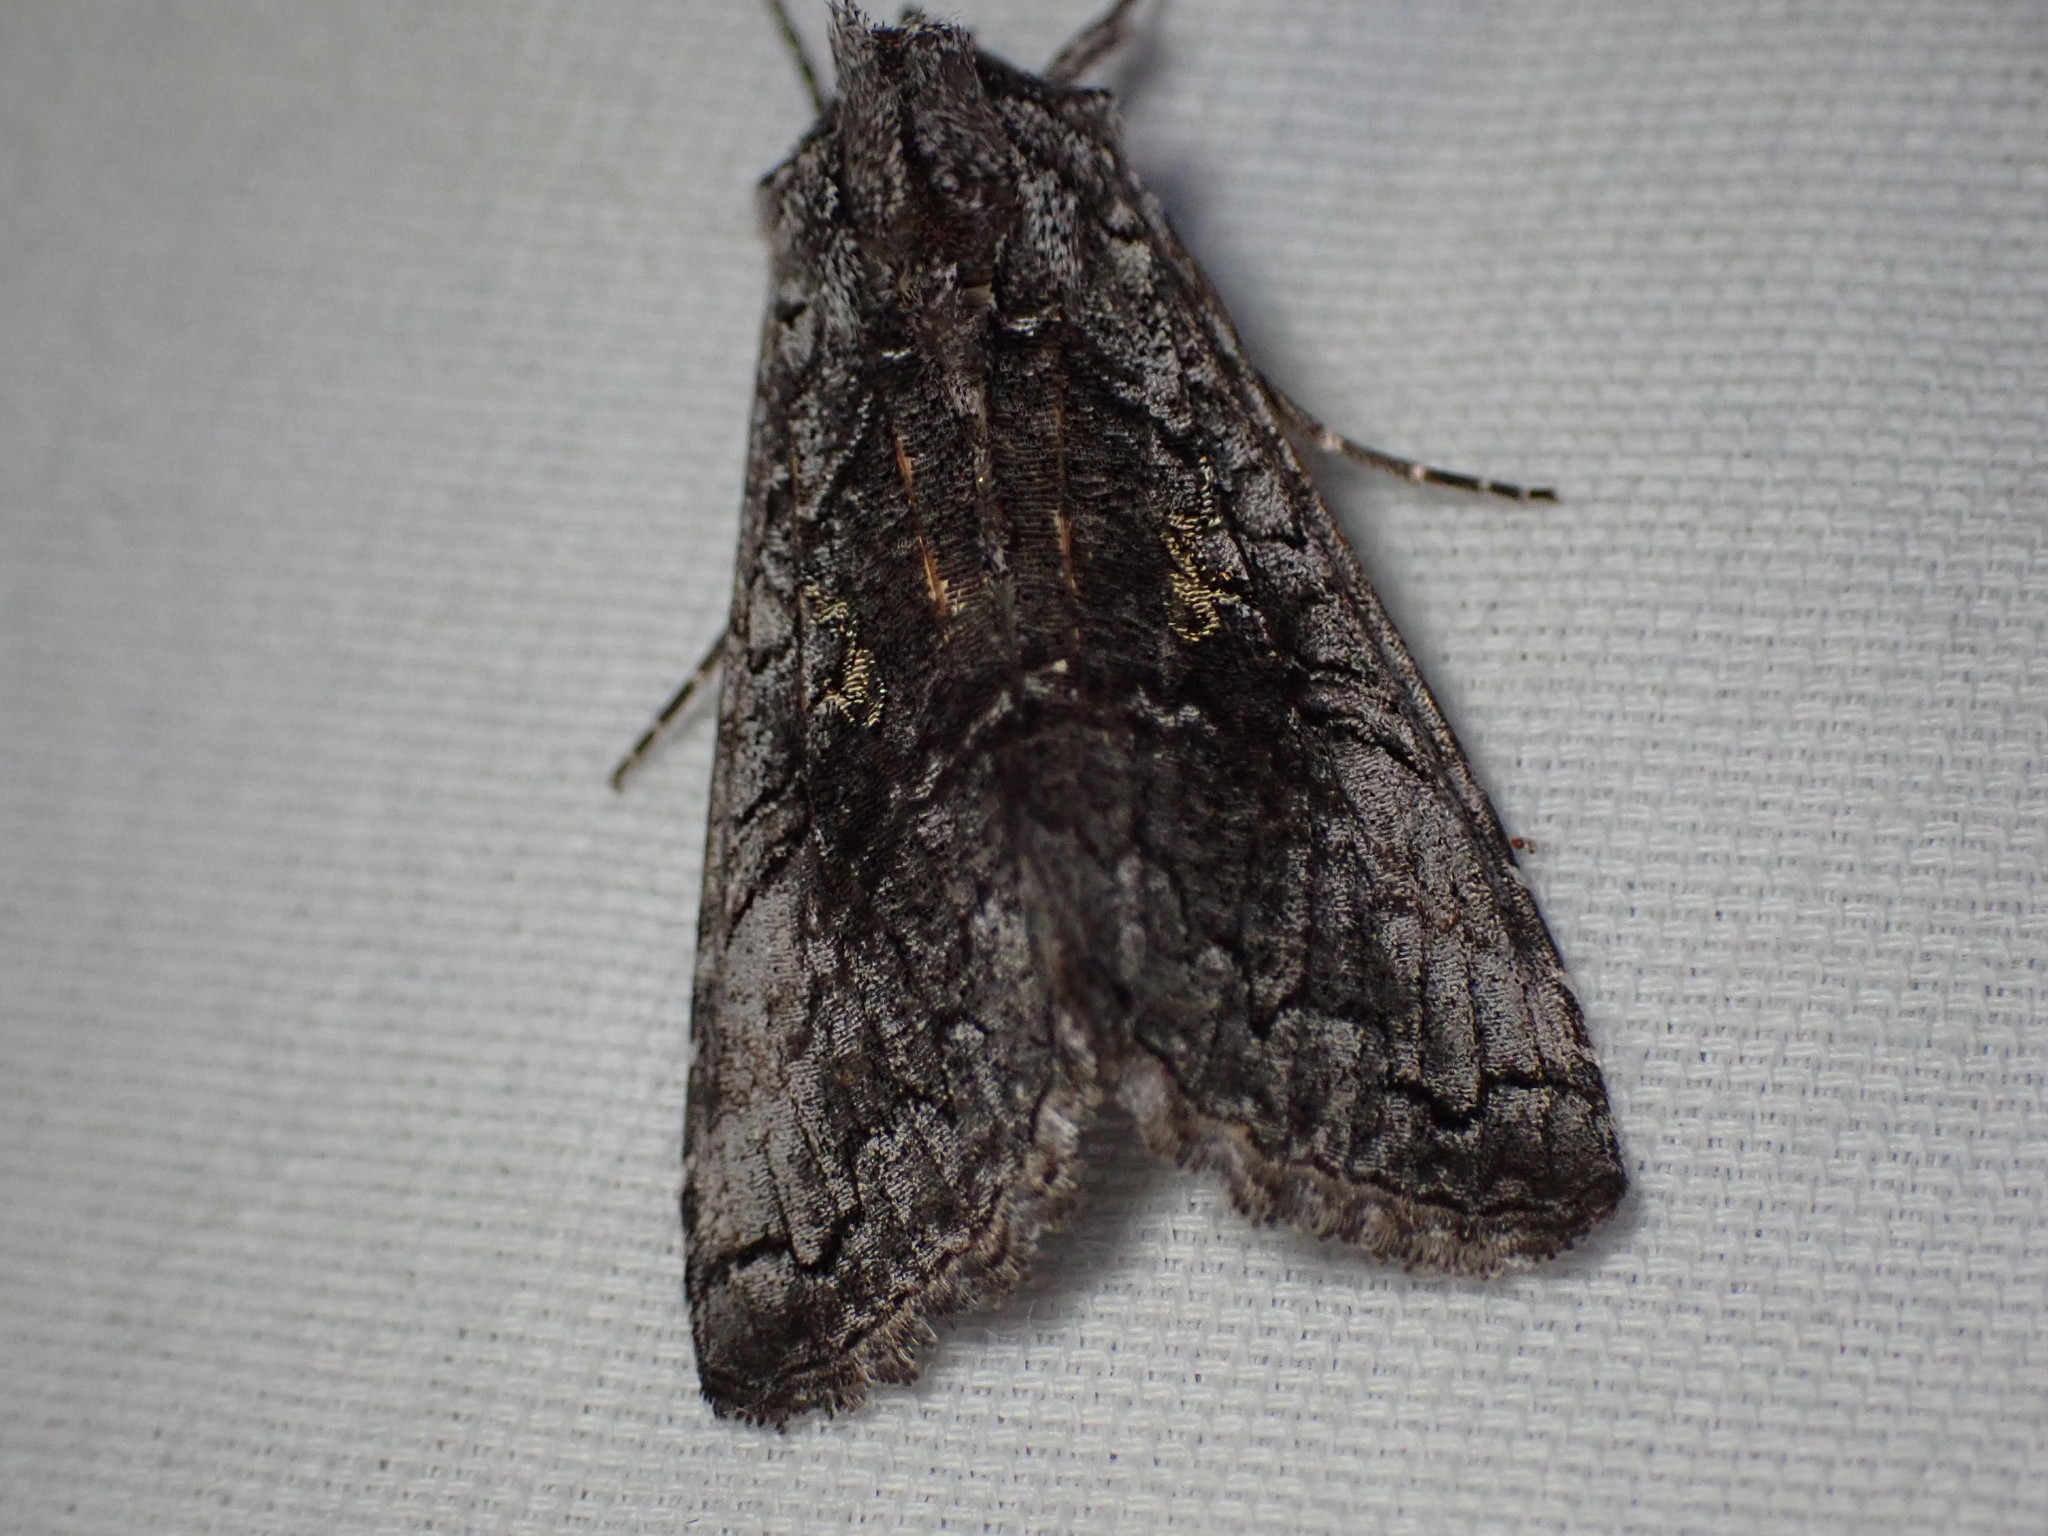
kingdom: Animalia
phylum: Arthropoda
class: Insecta
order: Lepidoptera
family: Noctuidae
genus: Syngrapha
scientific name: Syngrapha viridisigma
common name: Spruce false looper moth
